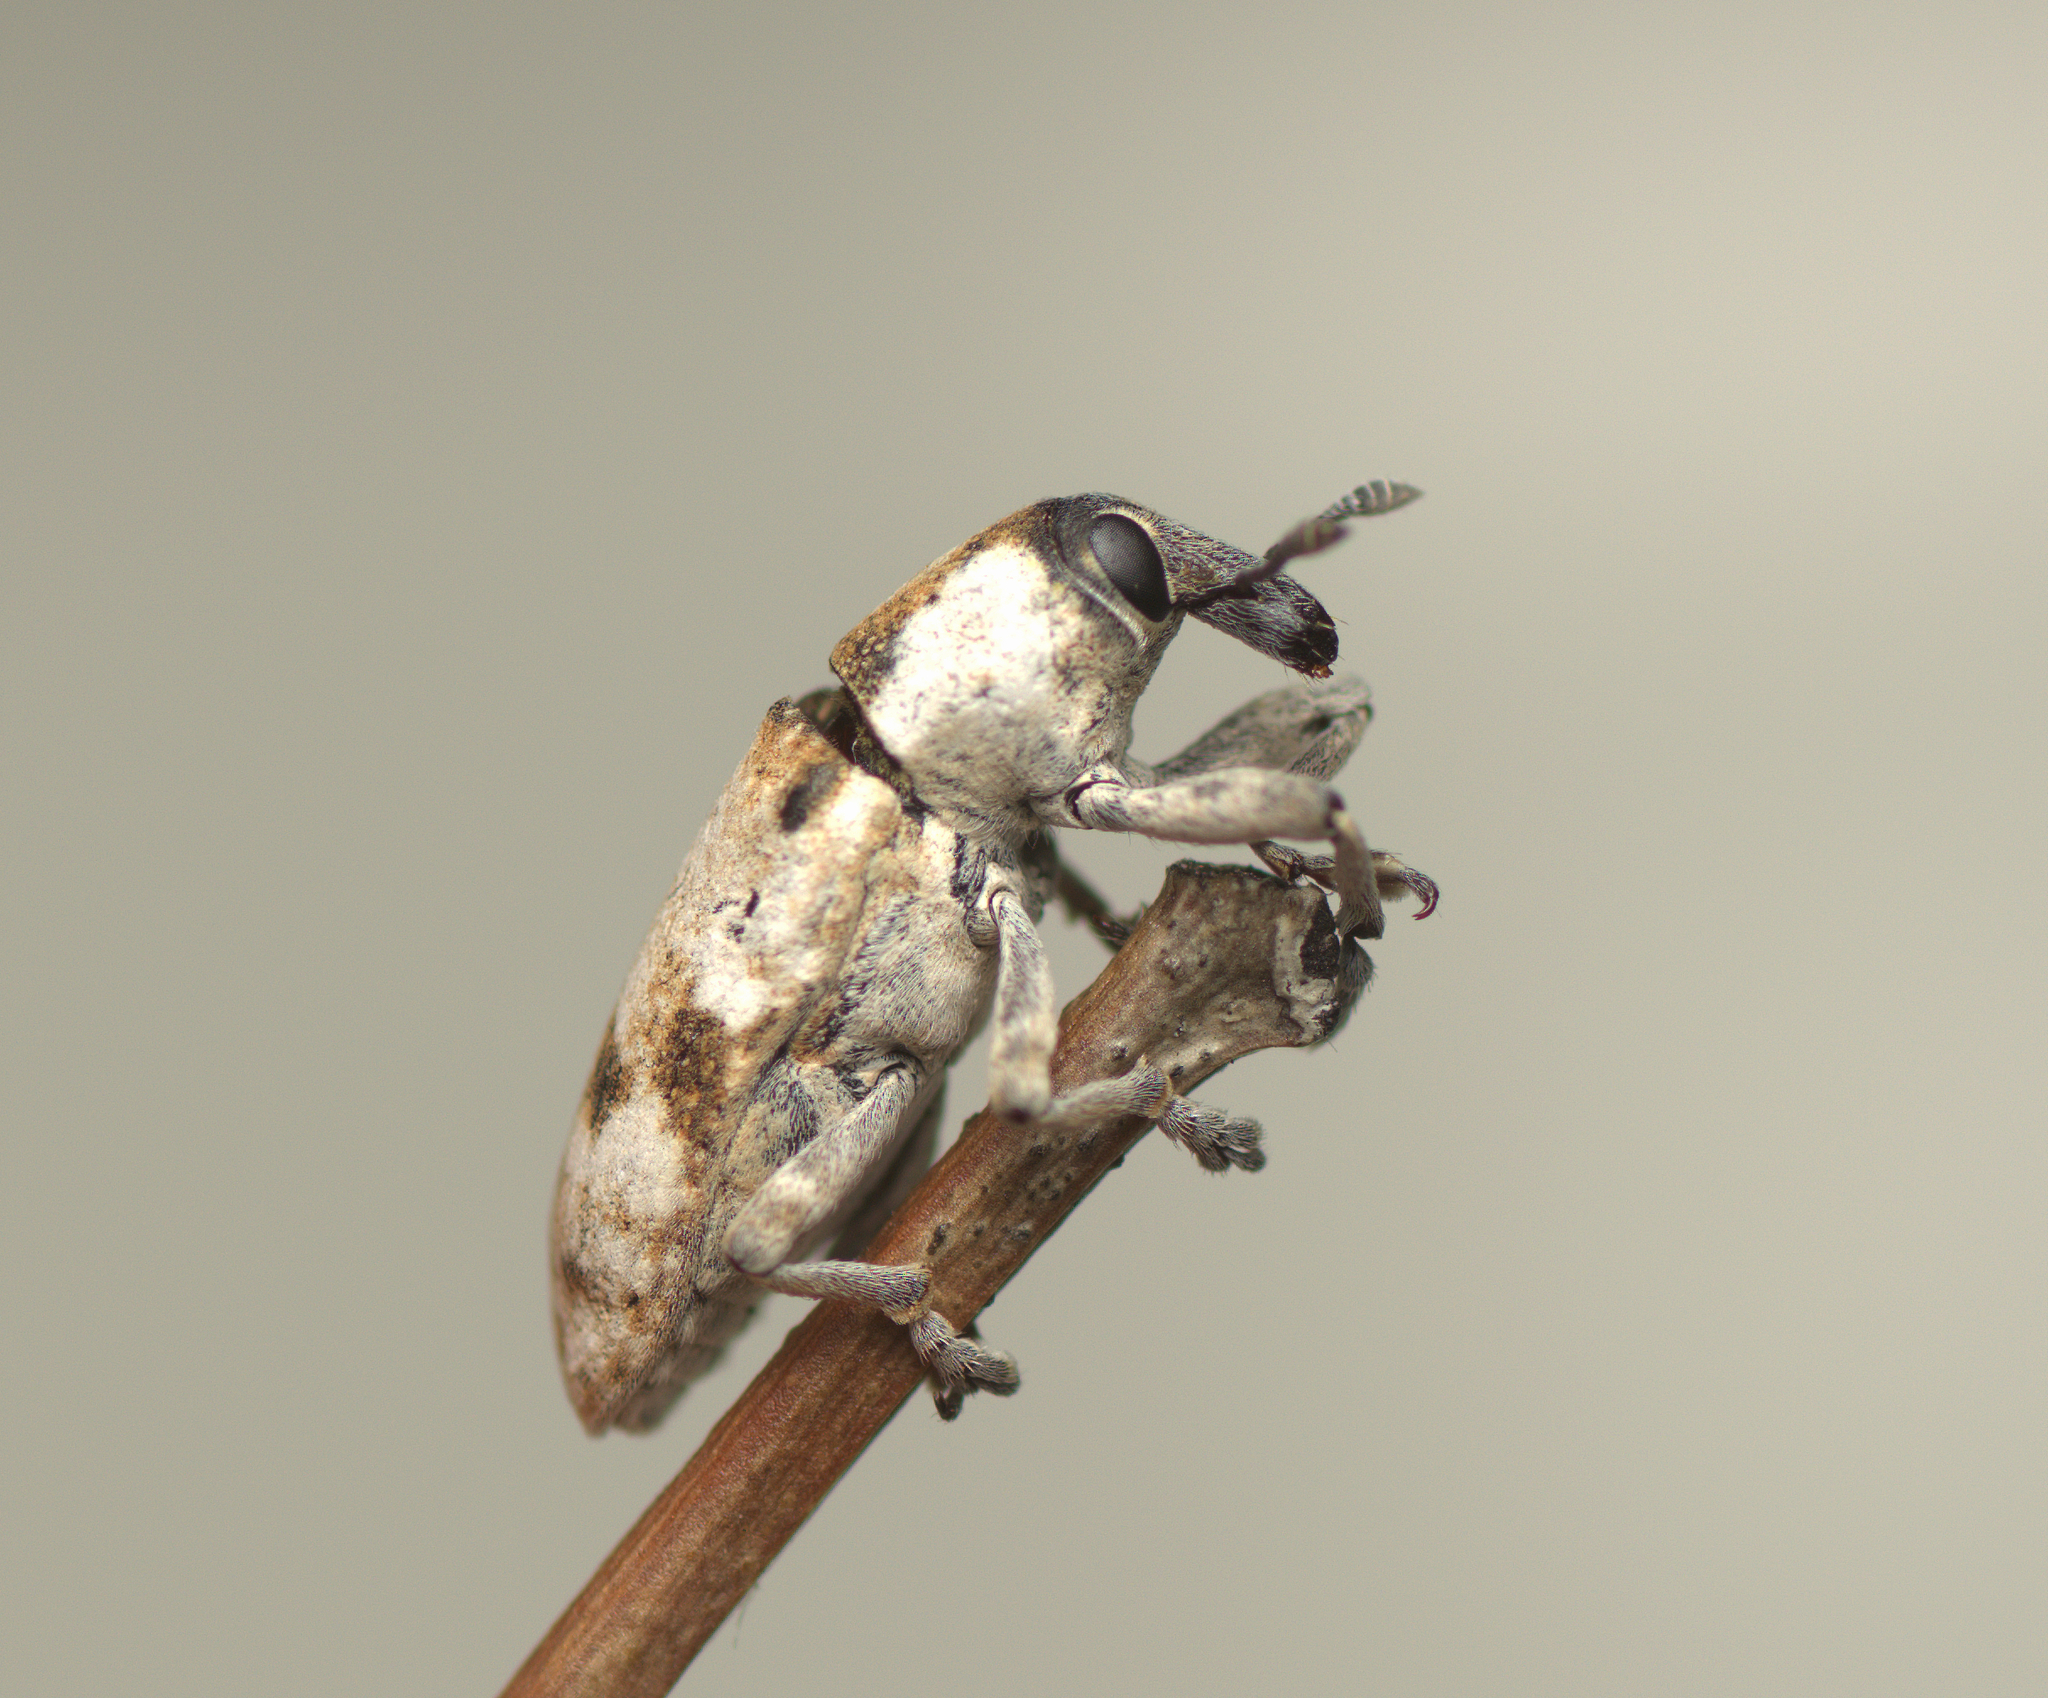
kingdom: Animalia
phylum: Arthropoda
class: Insecta
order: Coleoptera
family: Curculionidae
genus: Hypolixus
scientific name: Hypolixus
